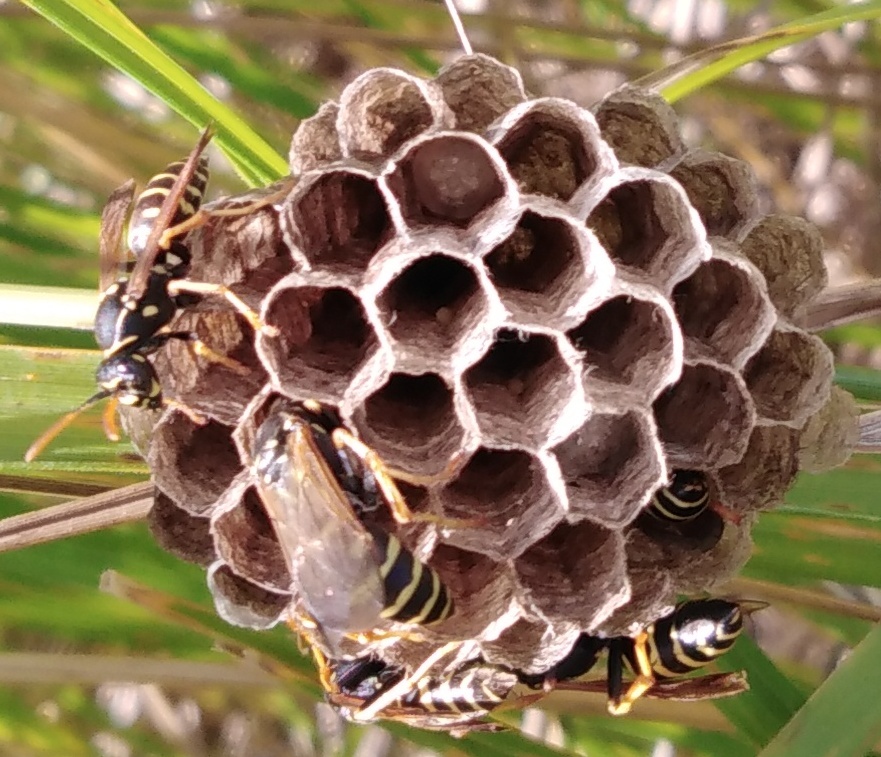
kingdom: Animalia
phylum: Arthropoda
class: Insecta
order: Hymenoptera
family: Eumenidae
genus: Polistes
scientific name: Polistes nimpha
